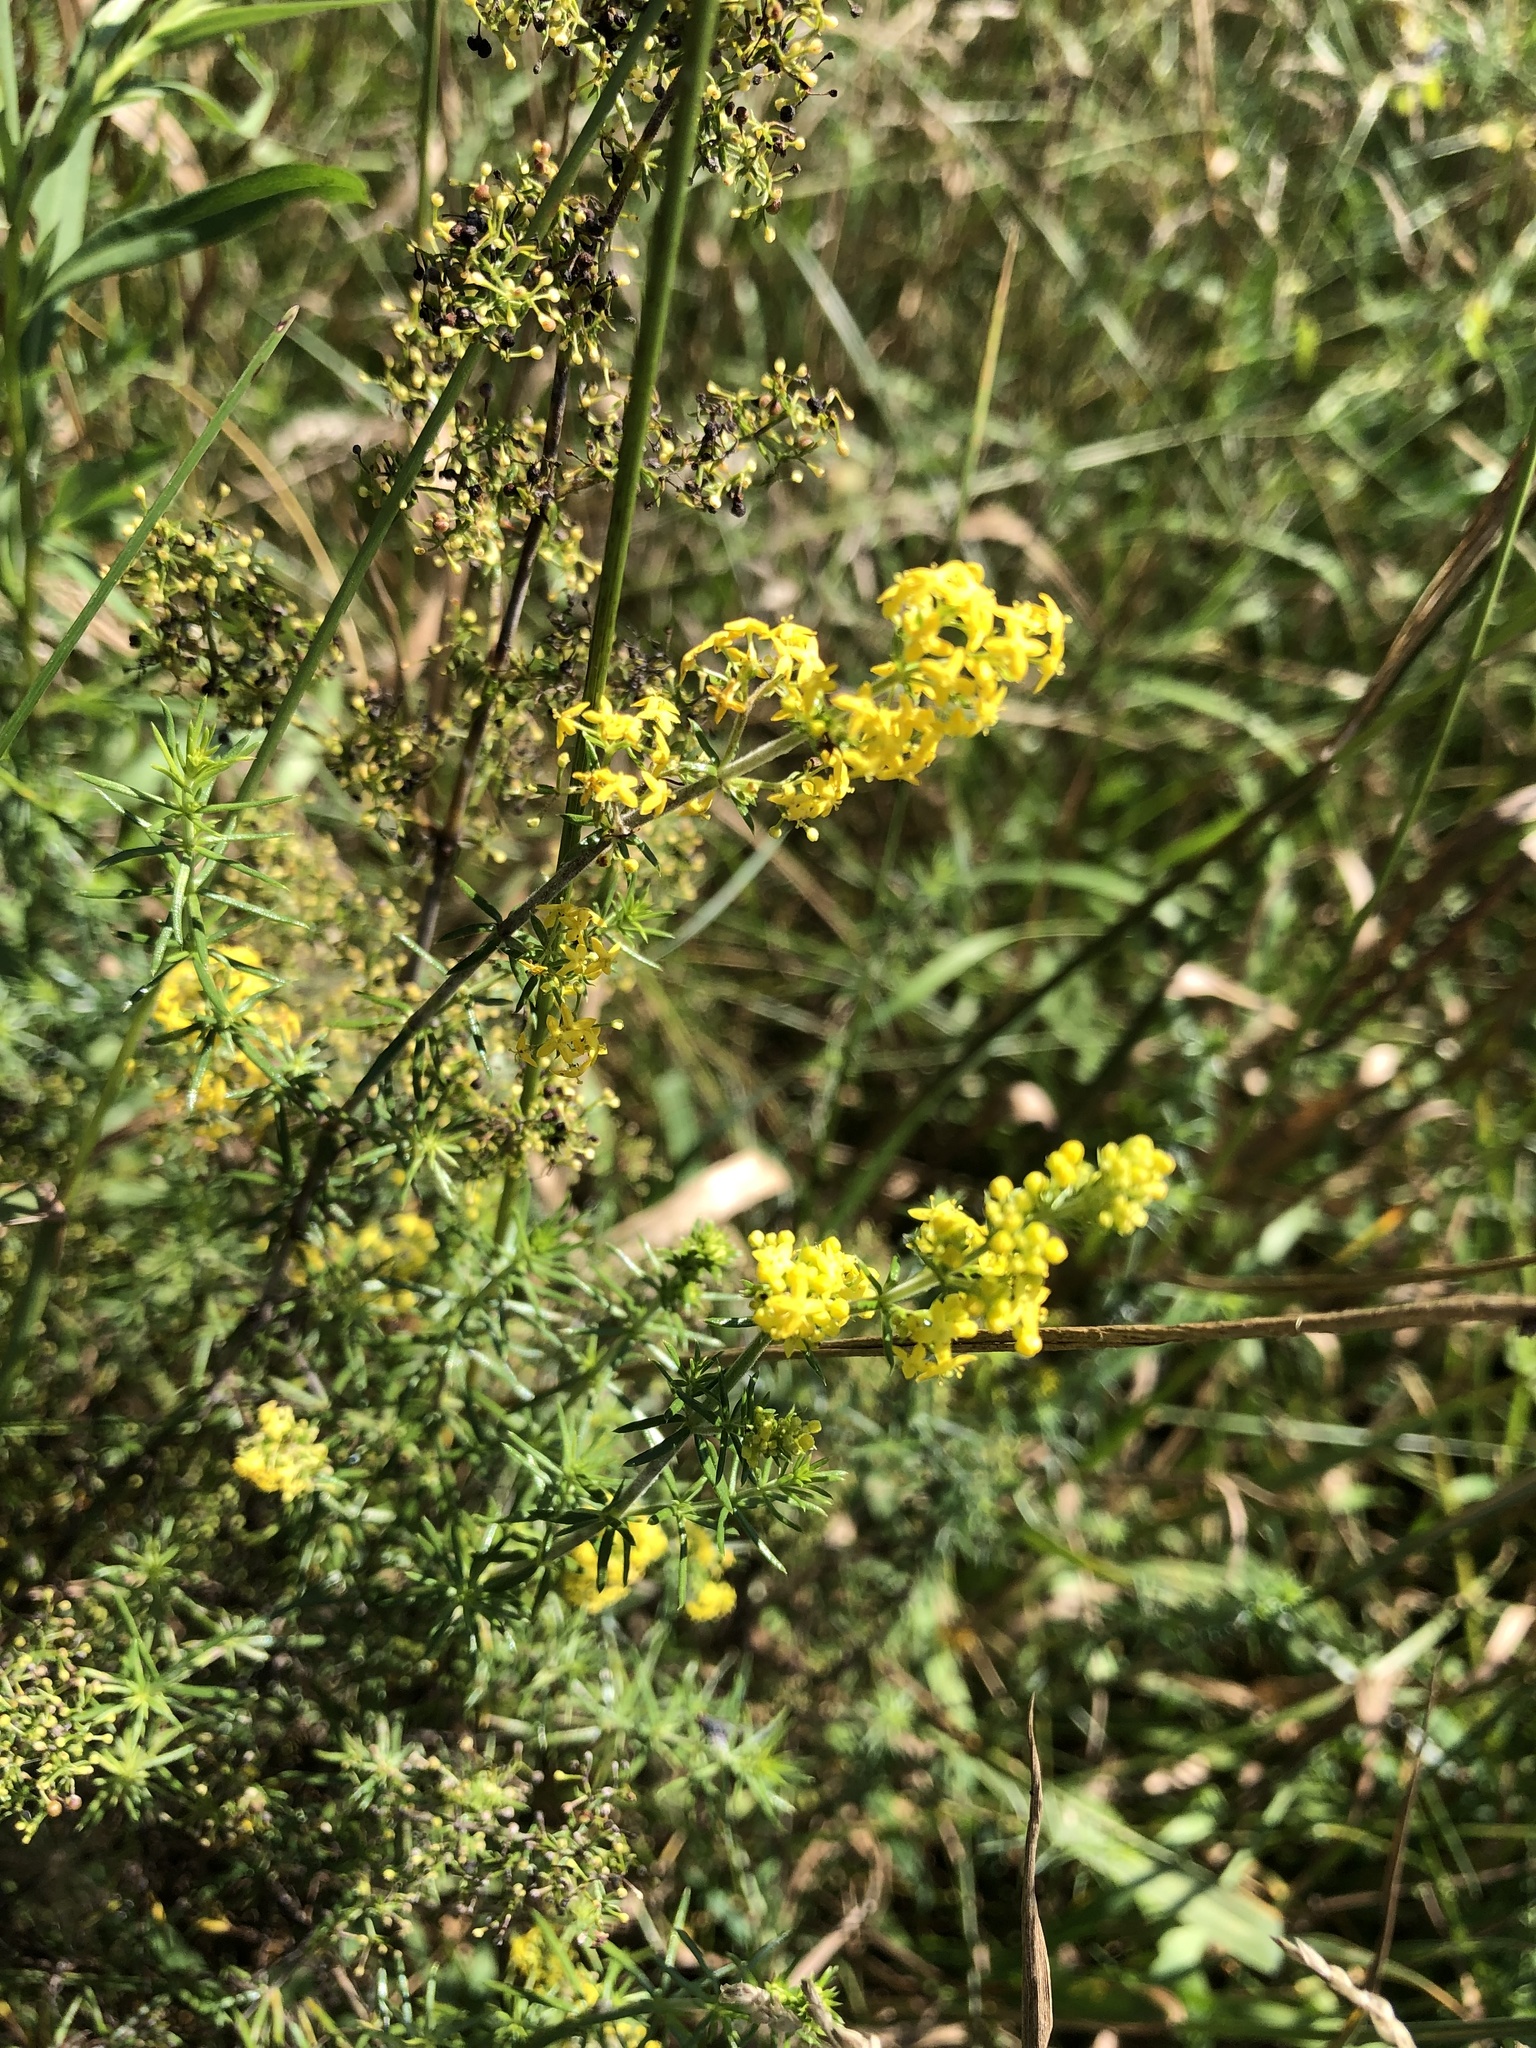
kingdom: Plantae
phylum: Tracheophyta
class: Magnoliopsida
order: Gentianales
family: Rubiaceae
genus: Galium
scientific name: Galium verum
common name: Lady's bedstraw
